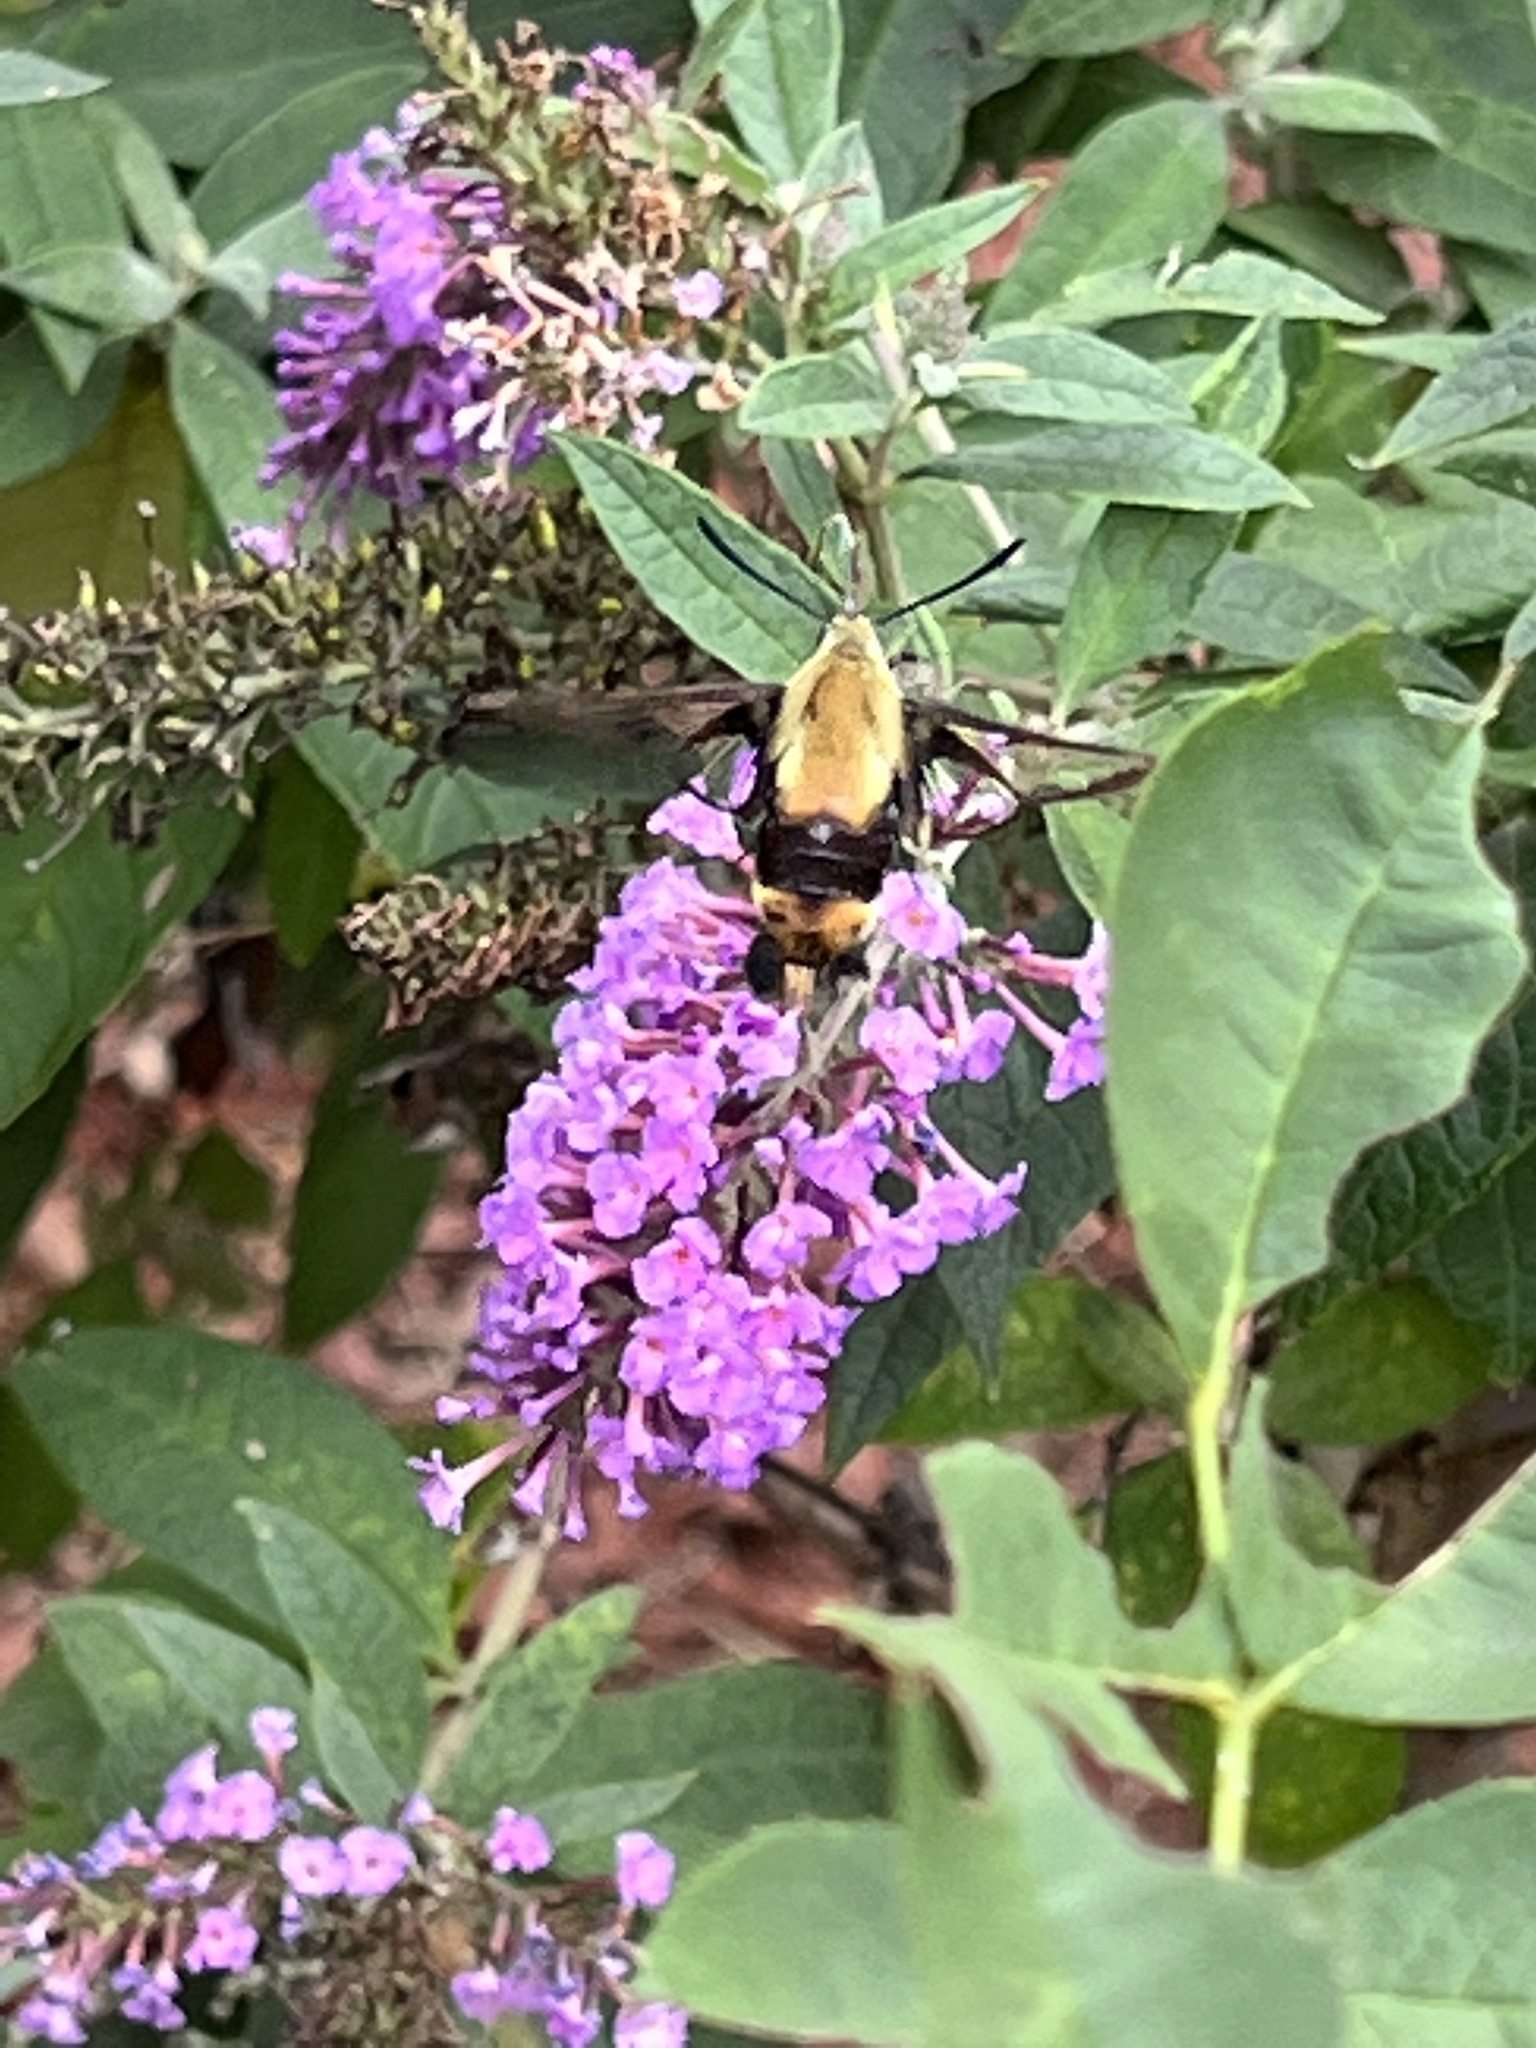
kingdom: Animalia
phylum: Arthropoda
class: Insecta
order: Lepidoptera
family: Sphingidae
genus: Hemaris
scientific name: Hemaris diffinis
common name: Bumblebee moth
